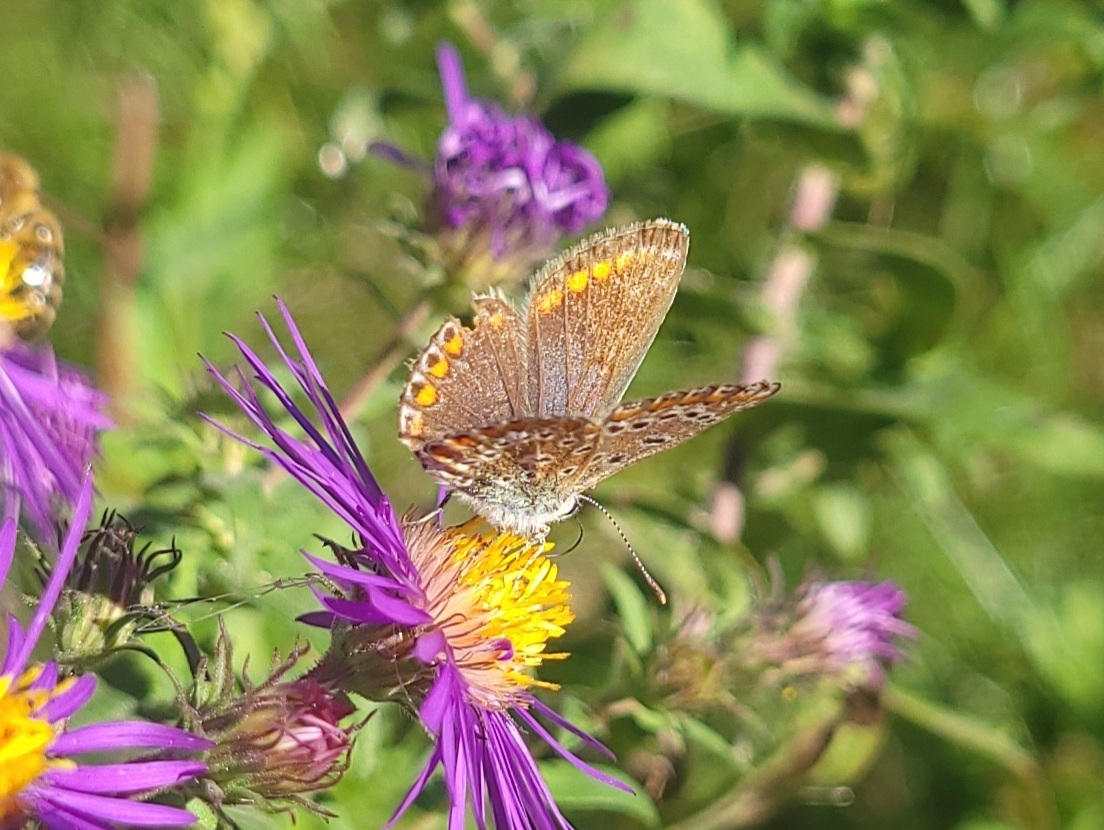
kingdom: Animalia
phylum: Arthropoda
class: Insecta
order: Lepidoptera
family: Lycaenidae
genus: Polyommatus
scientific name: Polyommatus icarus
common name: Common blue
